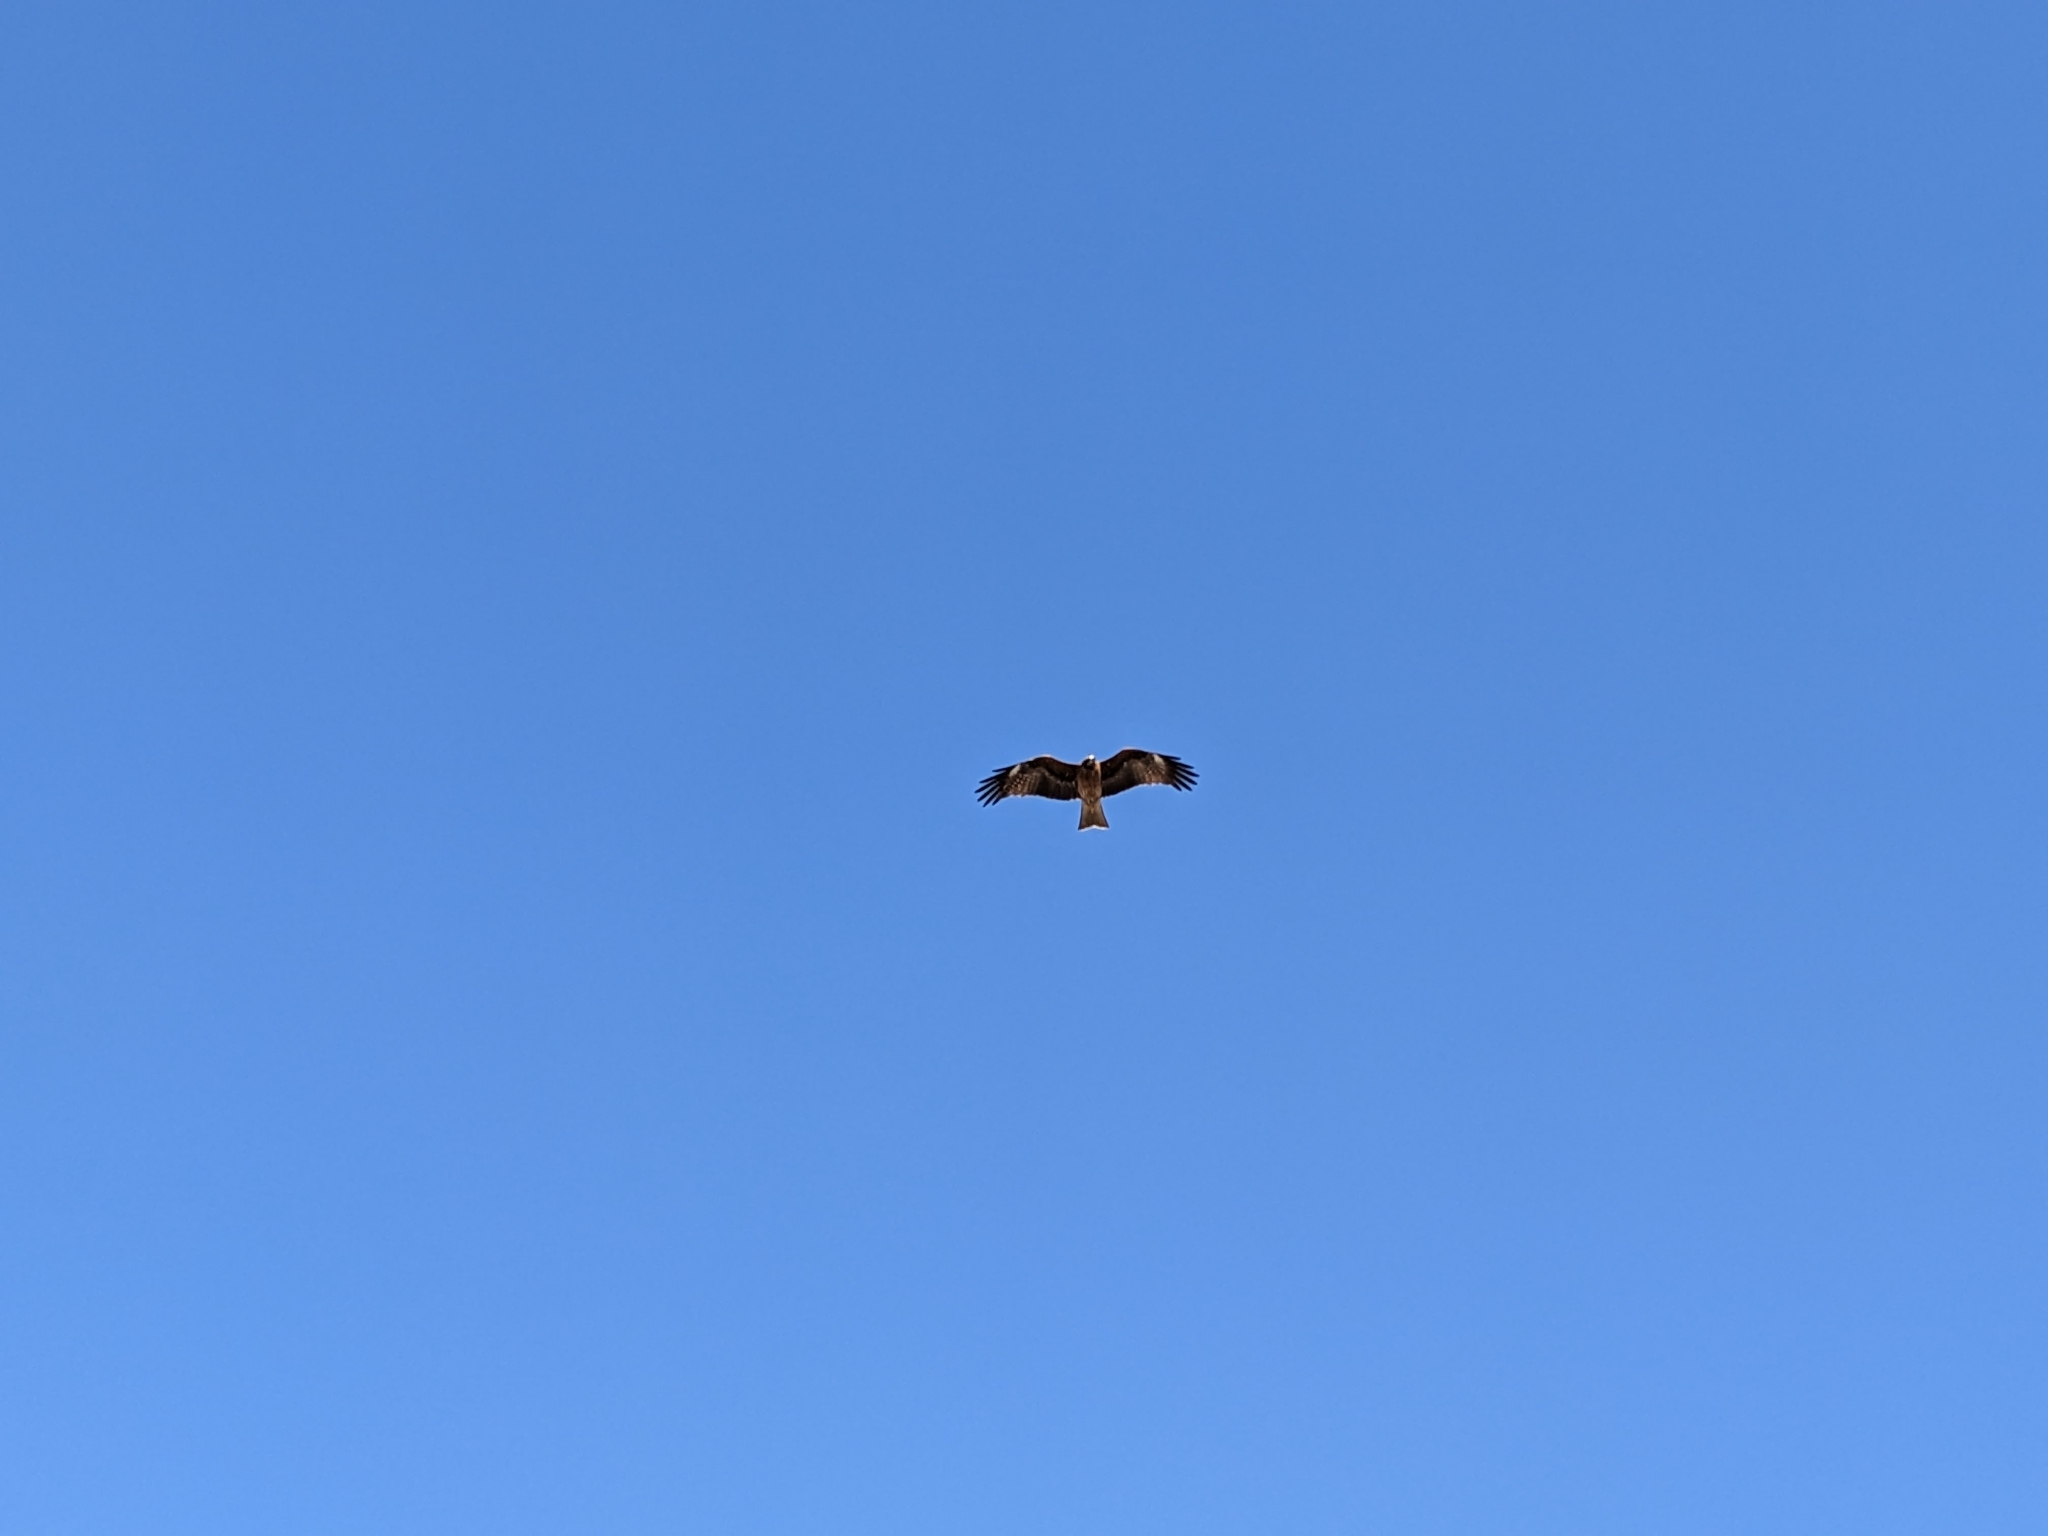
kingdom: Animalia
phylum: Chordata
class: Aves
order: Accipitriformes
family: Accipitridae
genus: Milvus
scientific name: Milvus migrans
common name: Black kite
